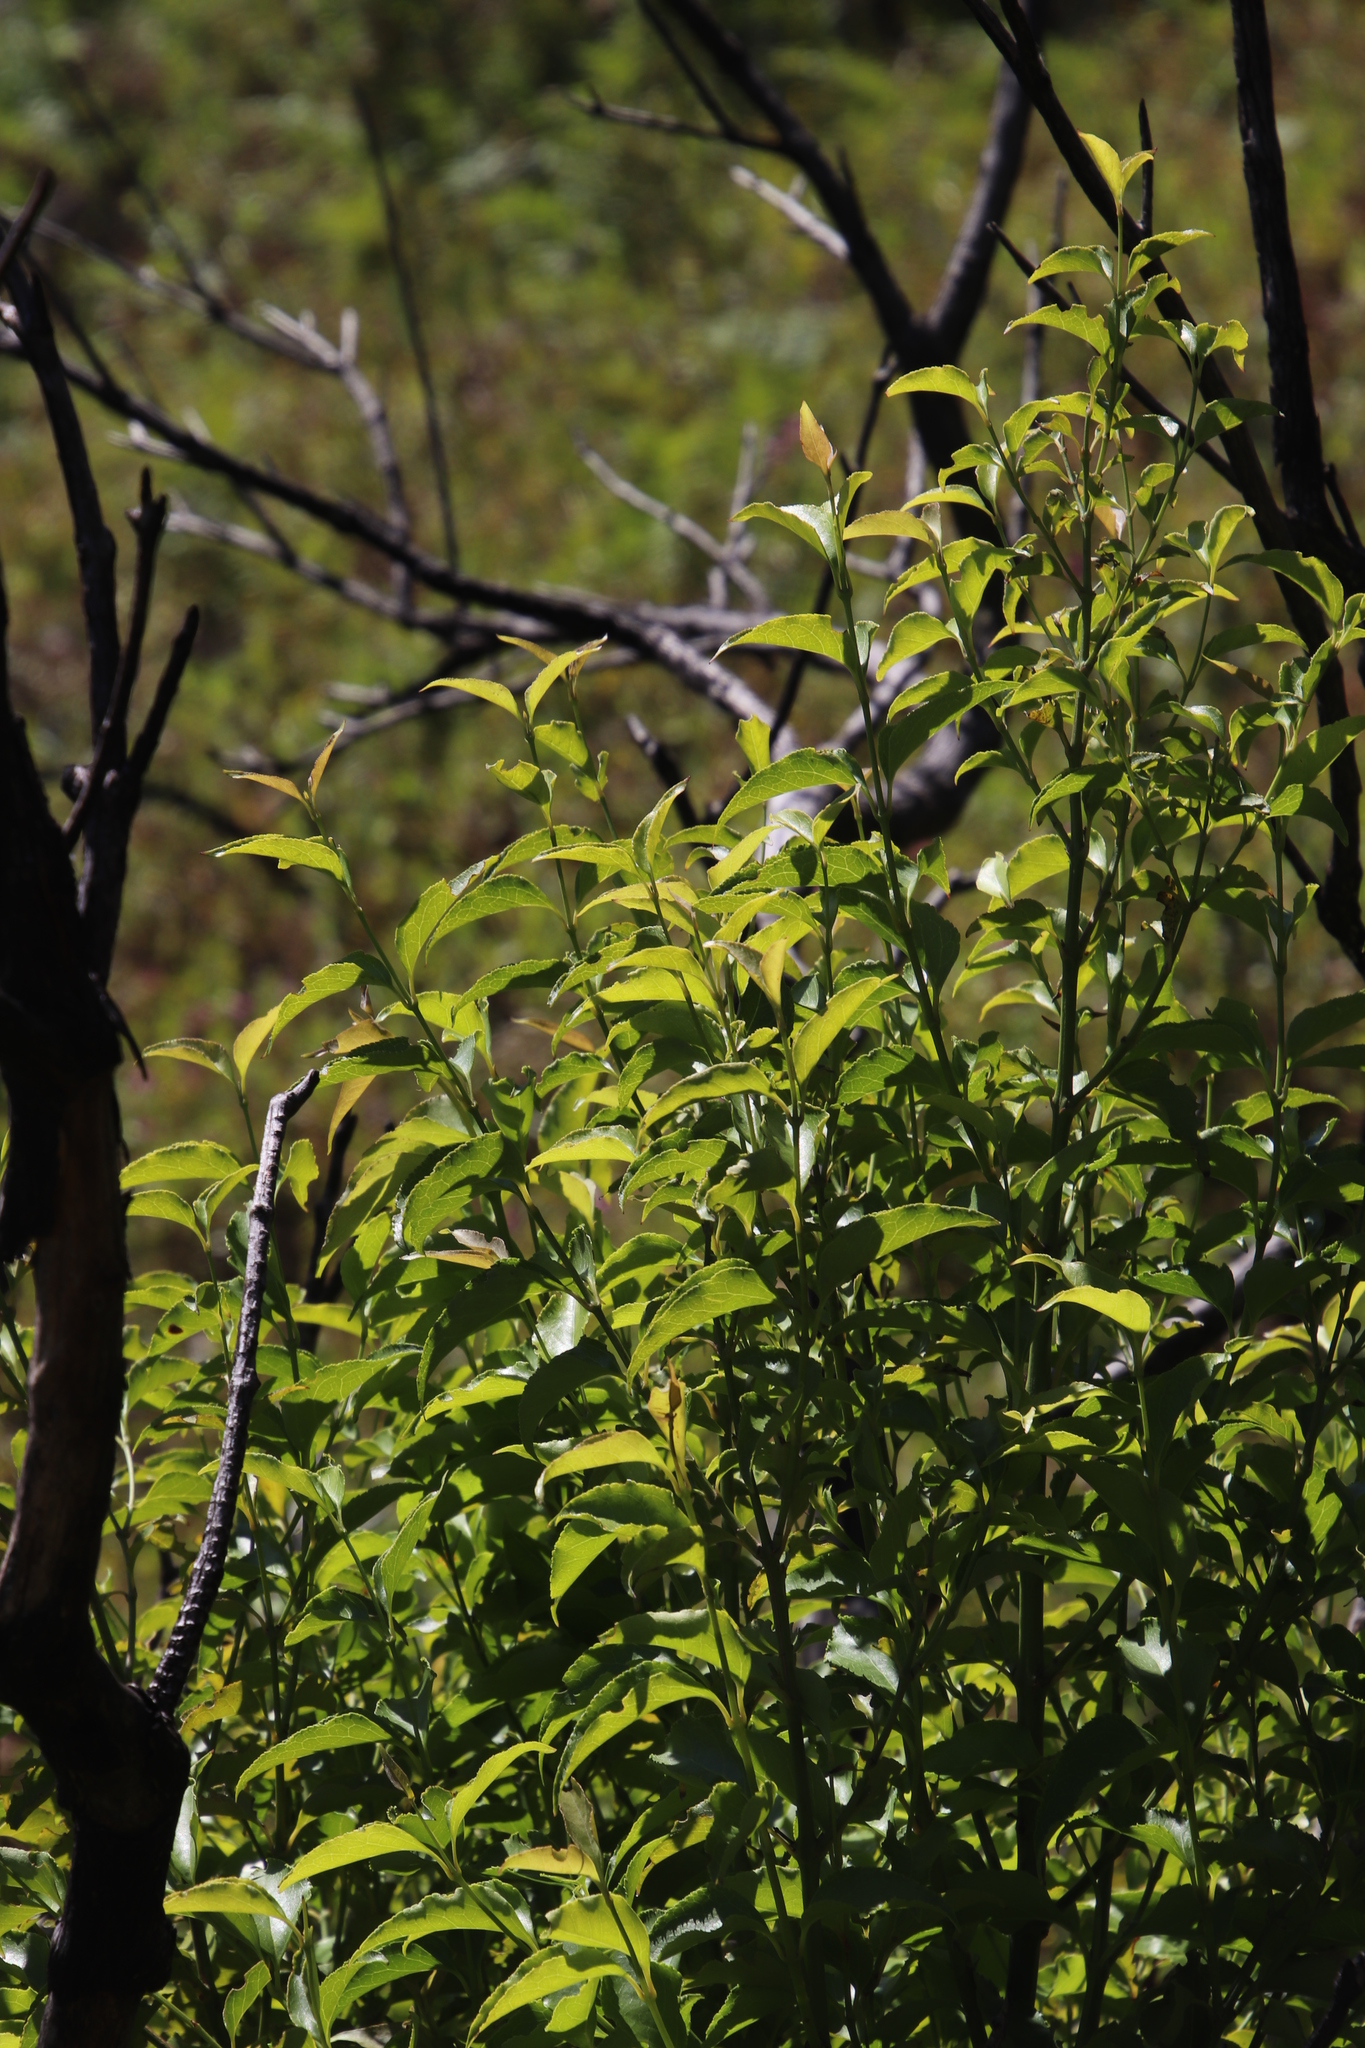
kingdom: Plantae
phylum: Tracheophyta
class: Magnoliopsida
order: Lamiales
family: Stilbaceae
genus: Halleria
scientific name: Halleria lucida
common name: Tree fuschia
